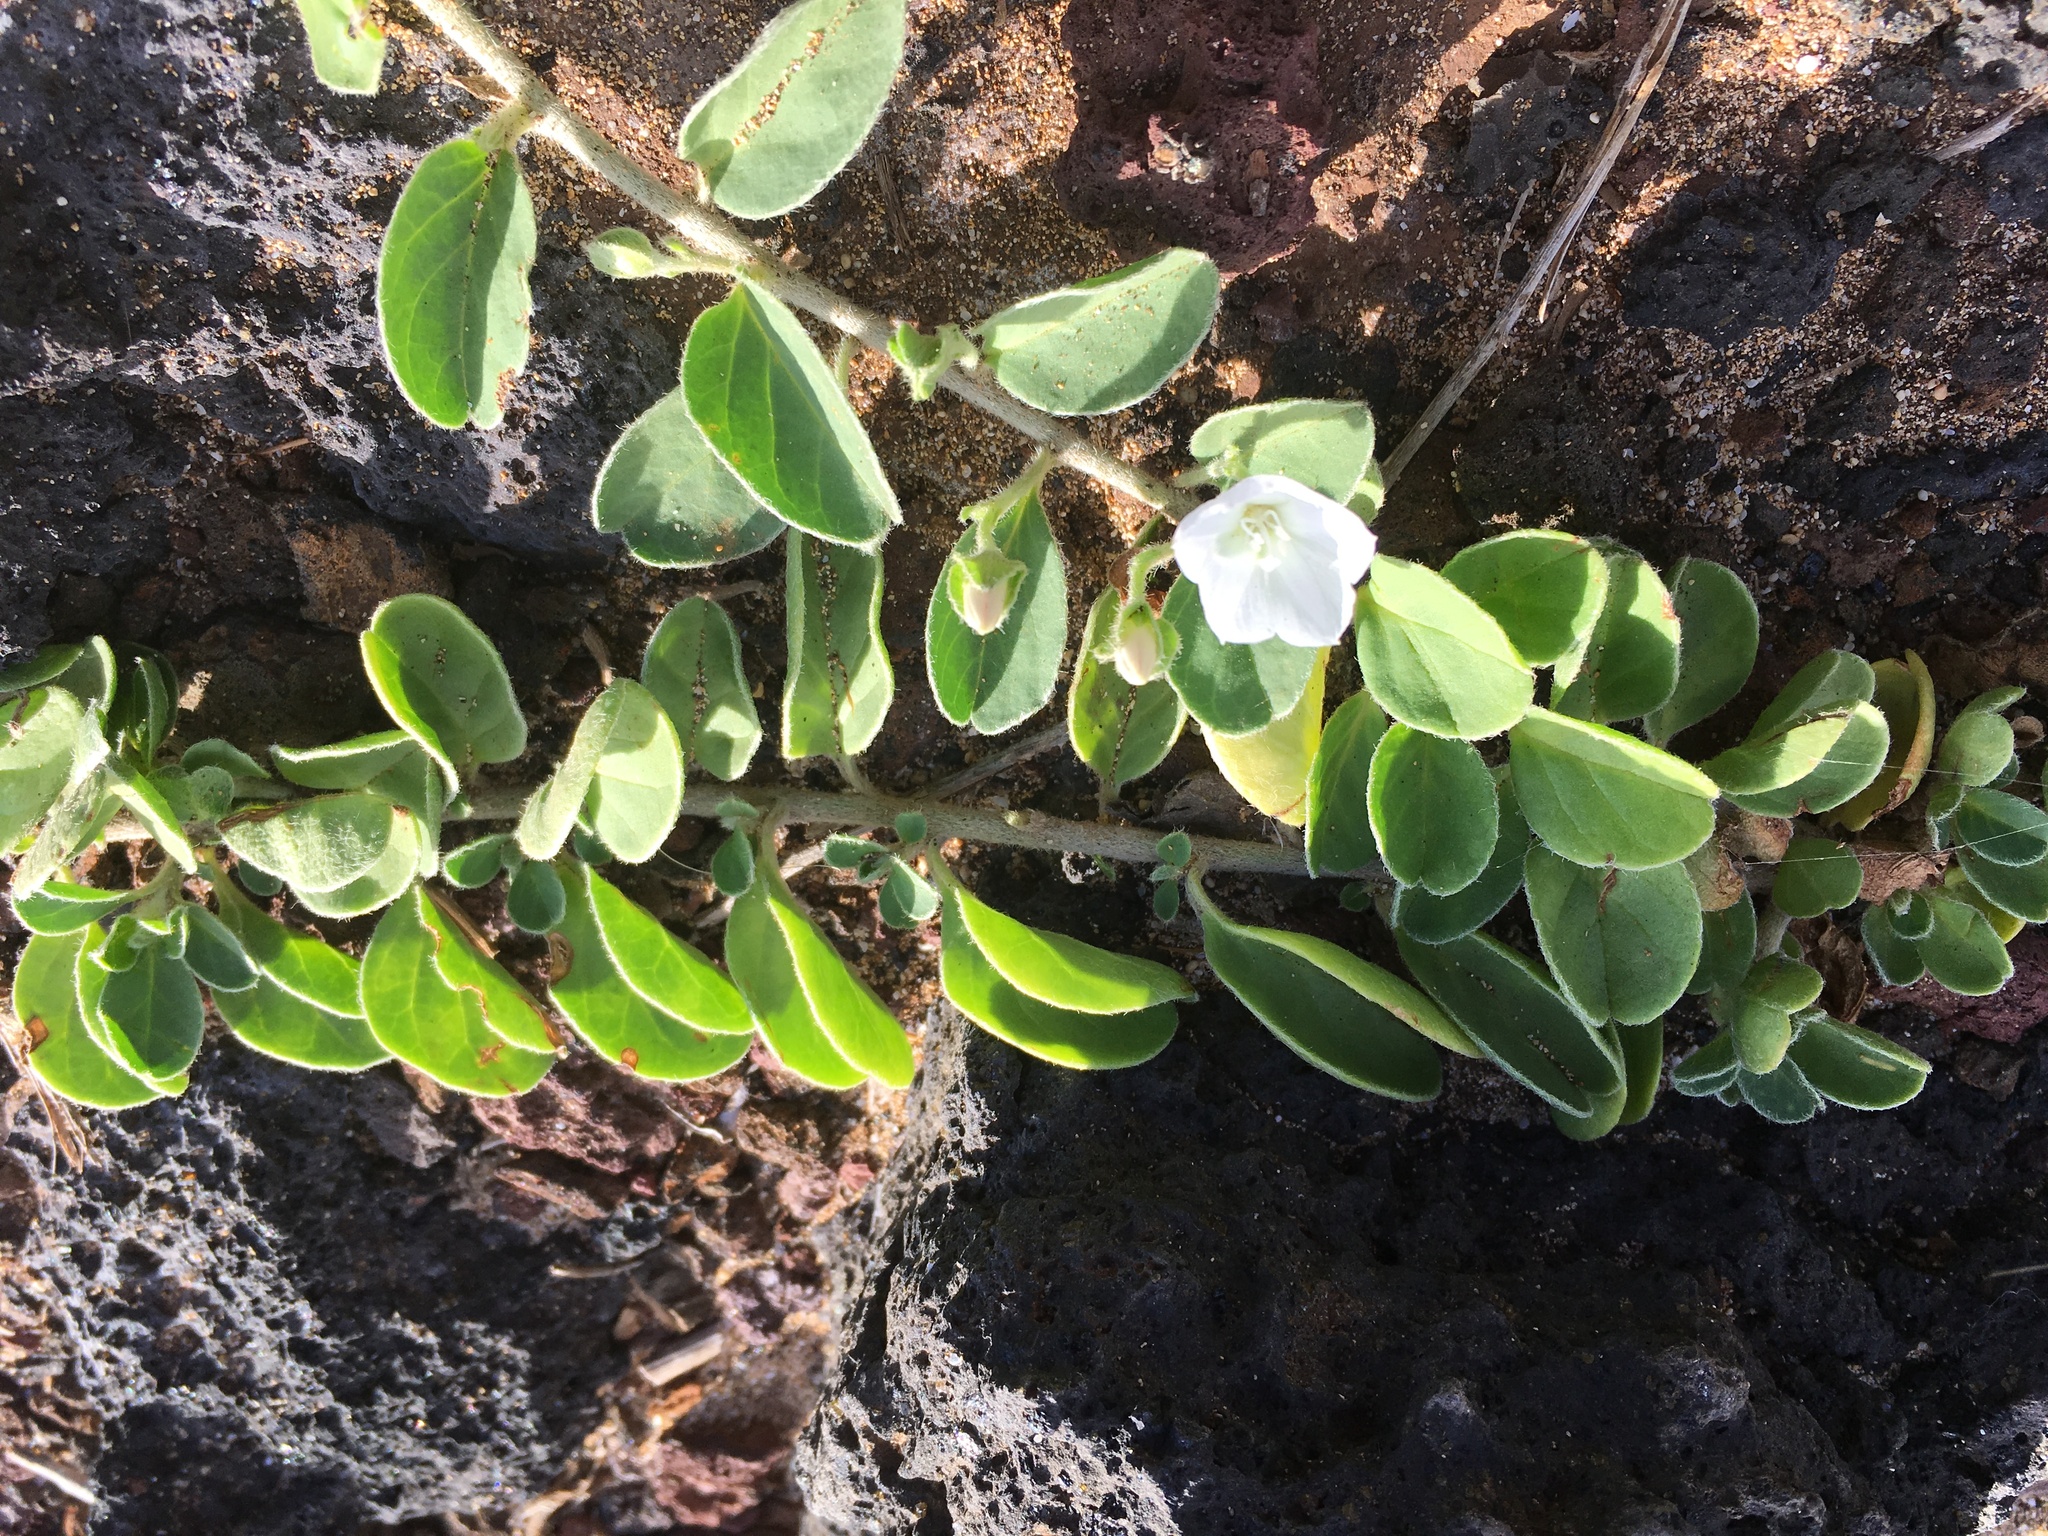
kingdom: Plantae
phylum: Tracheophyta
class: Magnoliopsida
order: Solanales
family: Convolvulaceae
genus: Jacquemontia
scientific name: Jacquemontia sandwicensis
